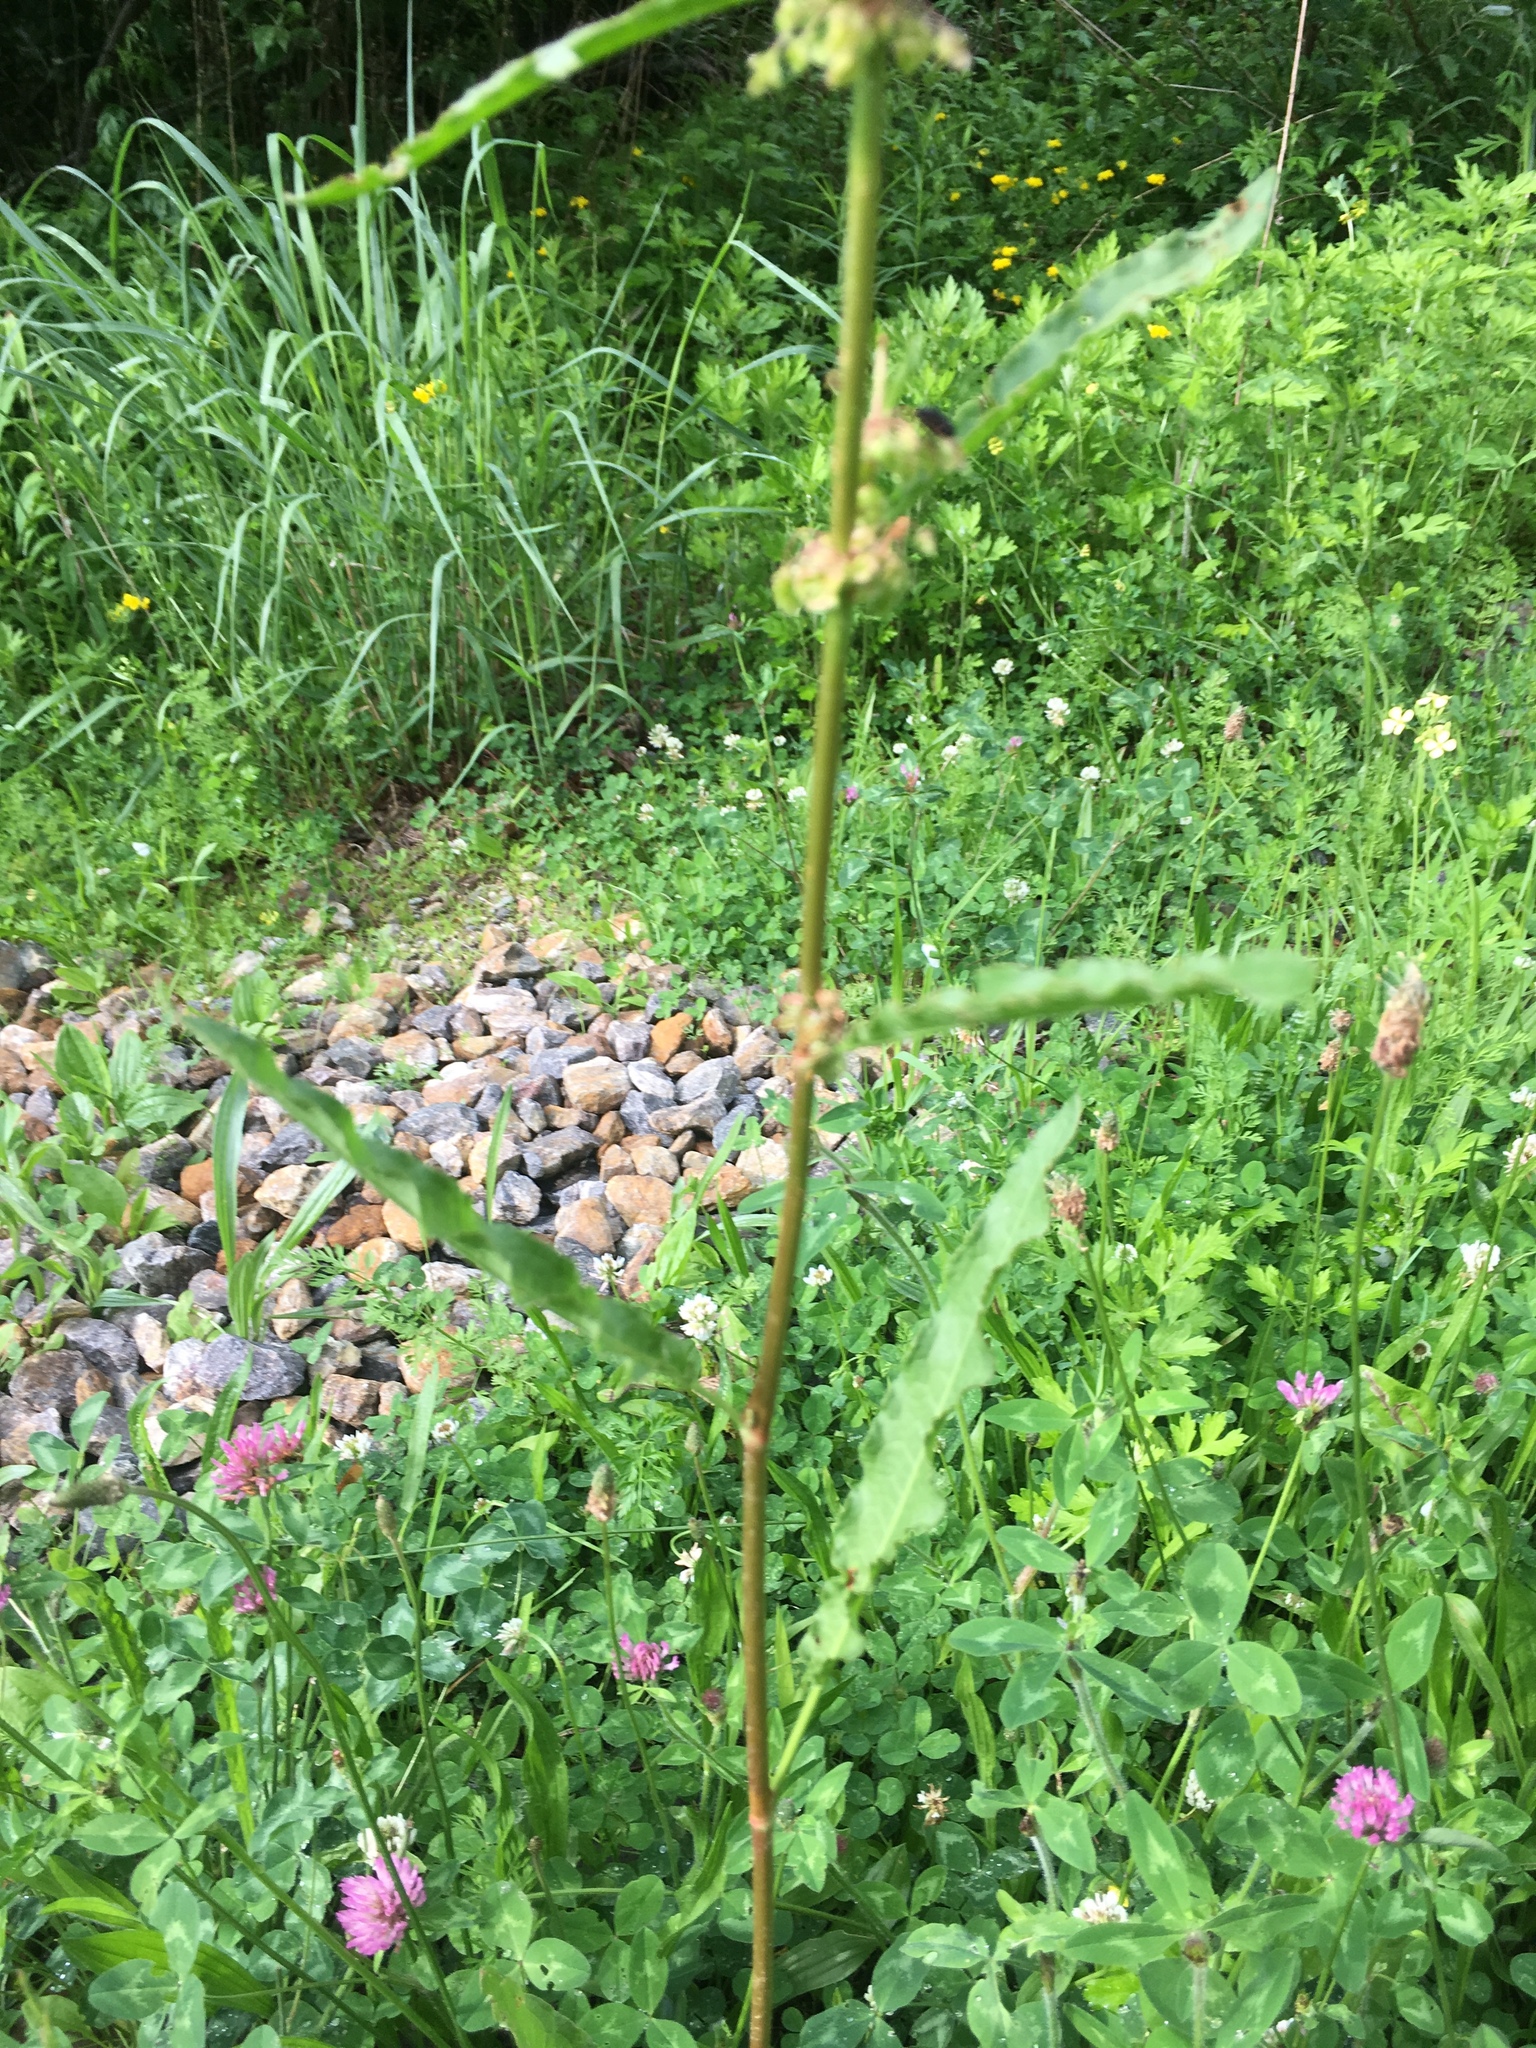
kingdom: Plantae
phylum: Tracheophyta
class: Magnoliopsida
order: Caryophyllales
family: Polygonaceae
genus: Rumex
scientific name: Rumex crispus
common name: Curled dock
